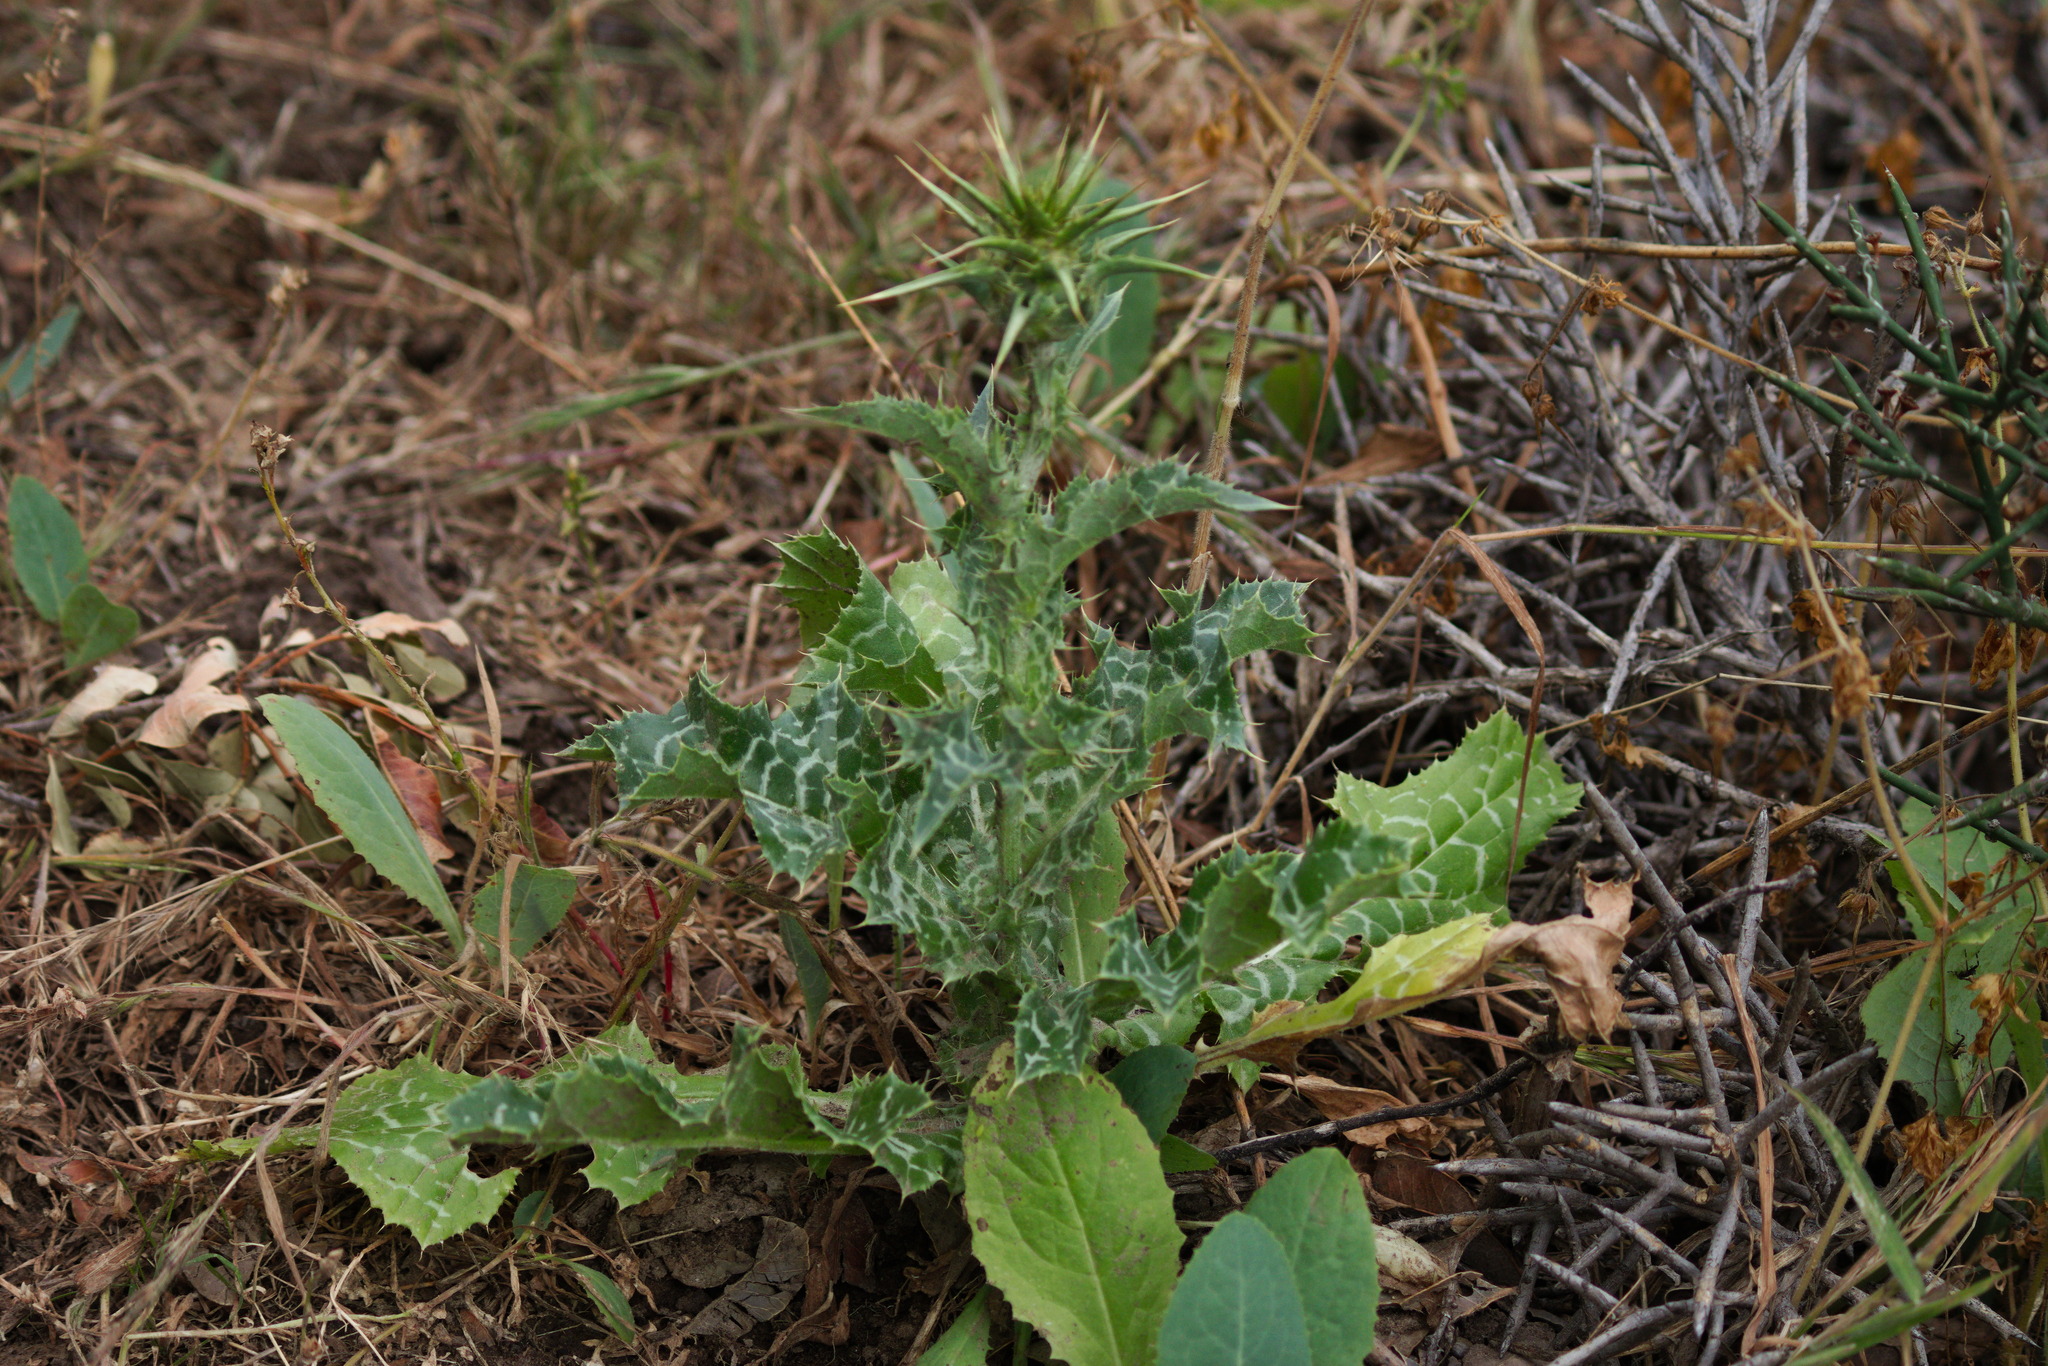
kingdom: Plantae
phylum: Tracheophyta
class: Magnoliopsida
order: Asterales
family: Asteraceae
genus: Silybum
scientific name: Silybum marianum
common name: Milk thistle
